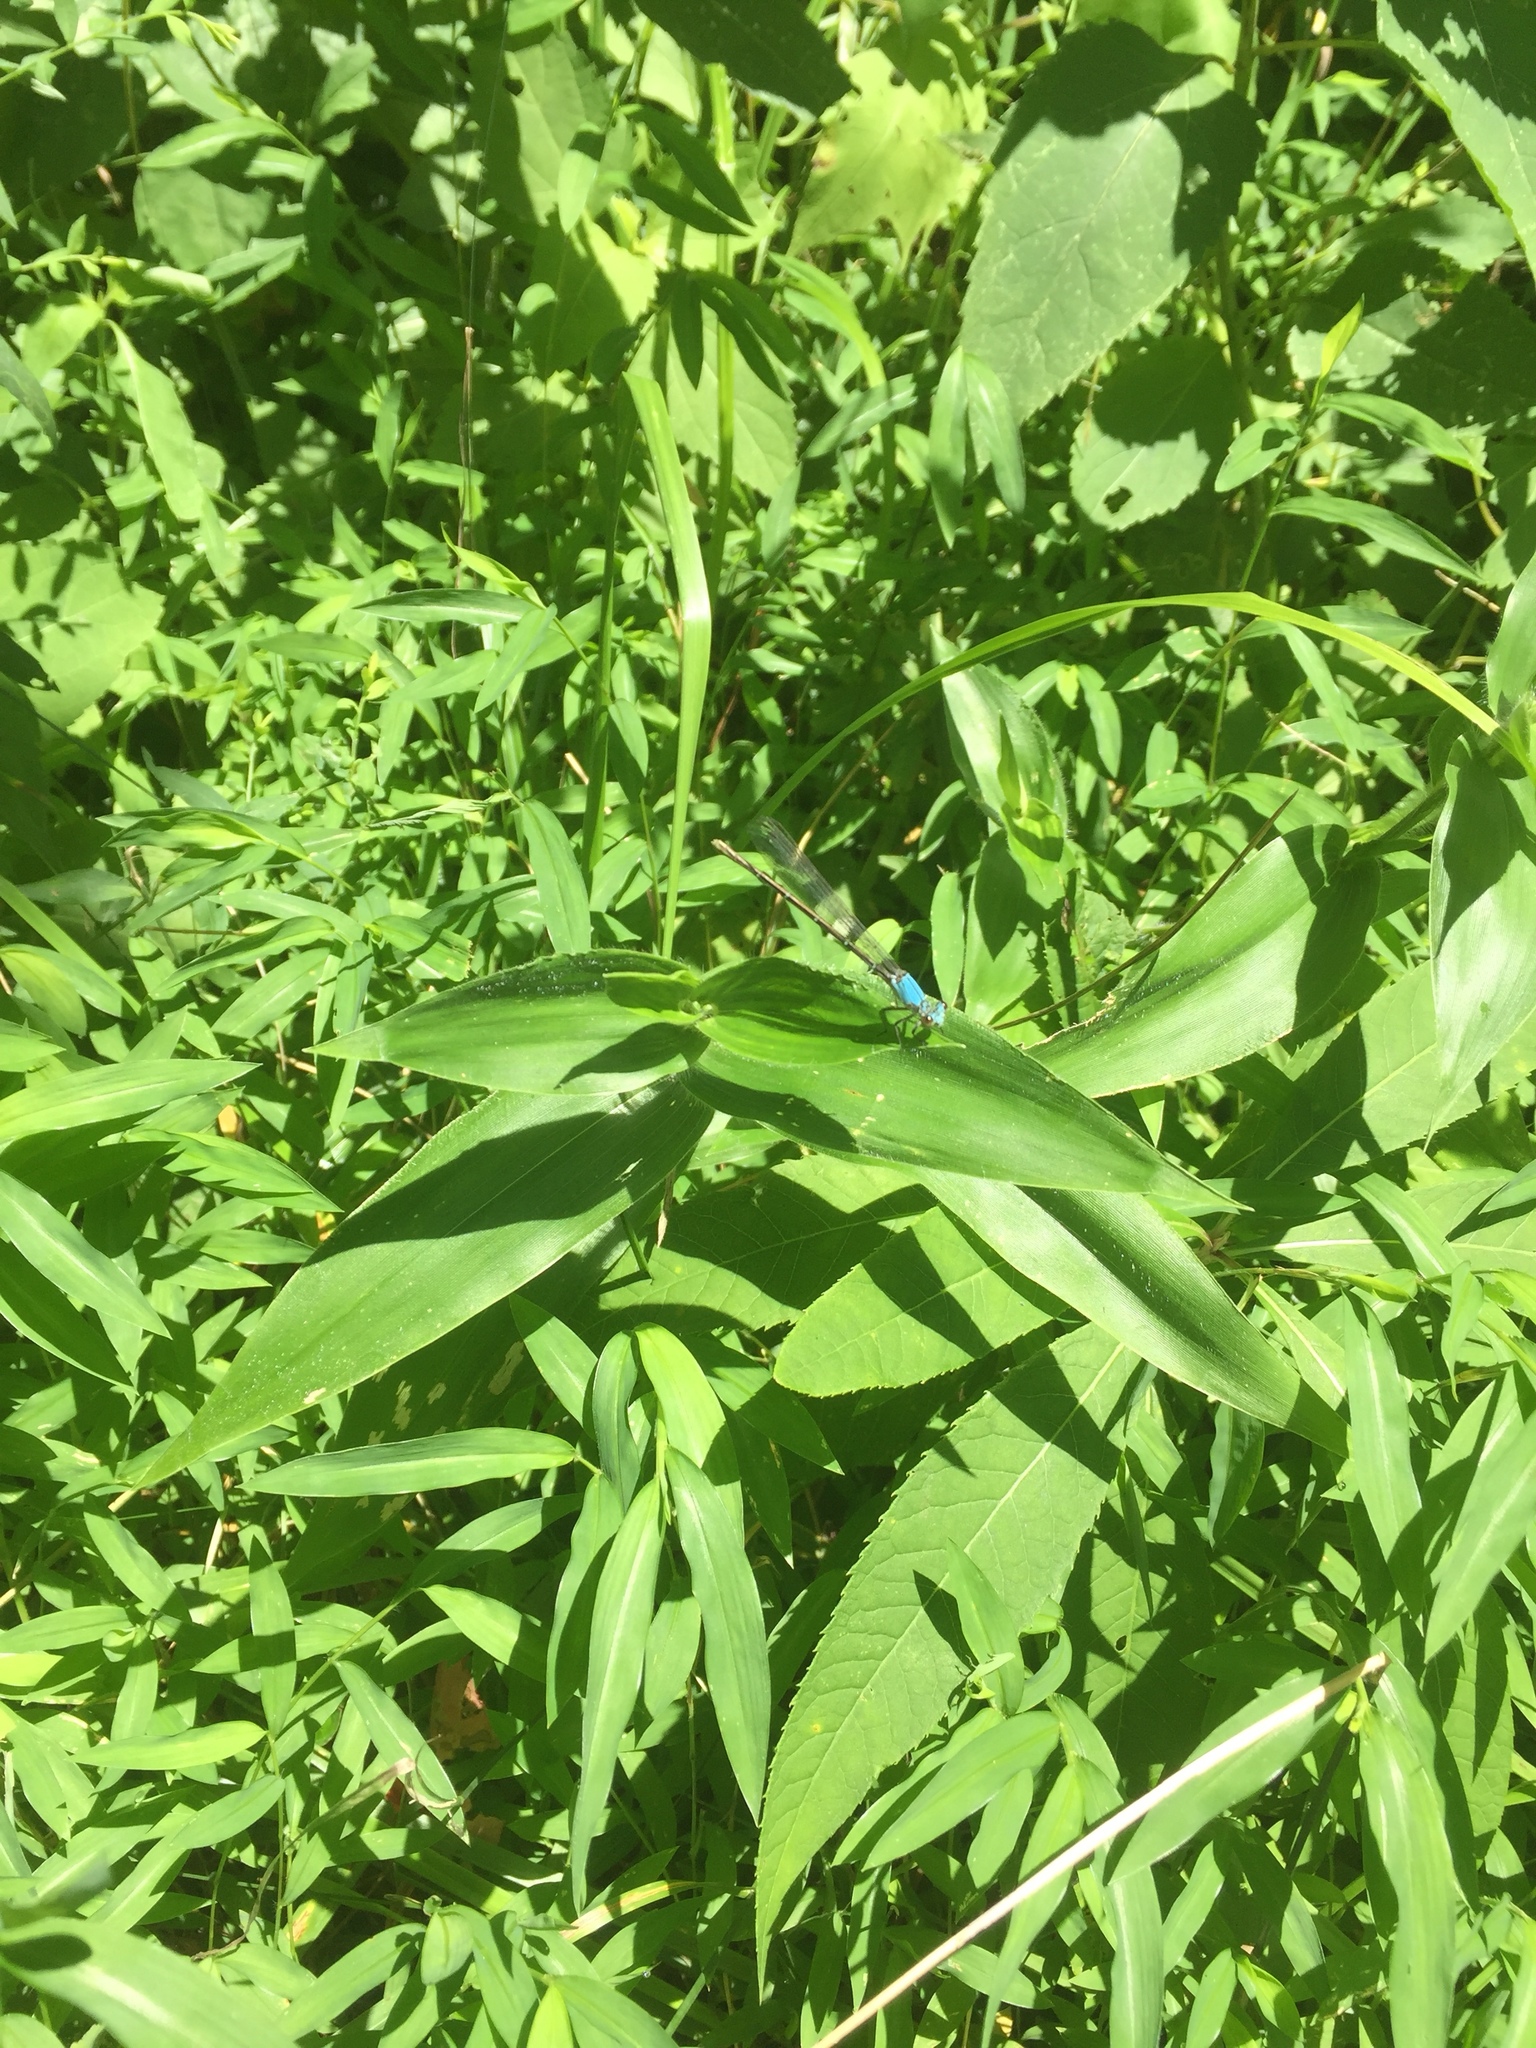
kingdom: Animalia
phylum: Arthropoda
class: Insecta
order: Odonata
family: Coenagrionidae
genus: Argia
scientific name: Argia moesta
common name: Powdered dancer
